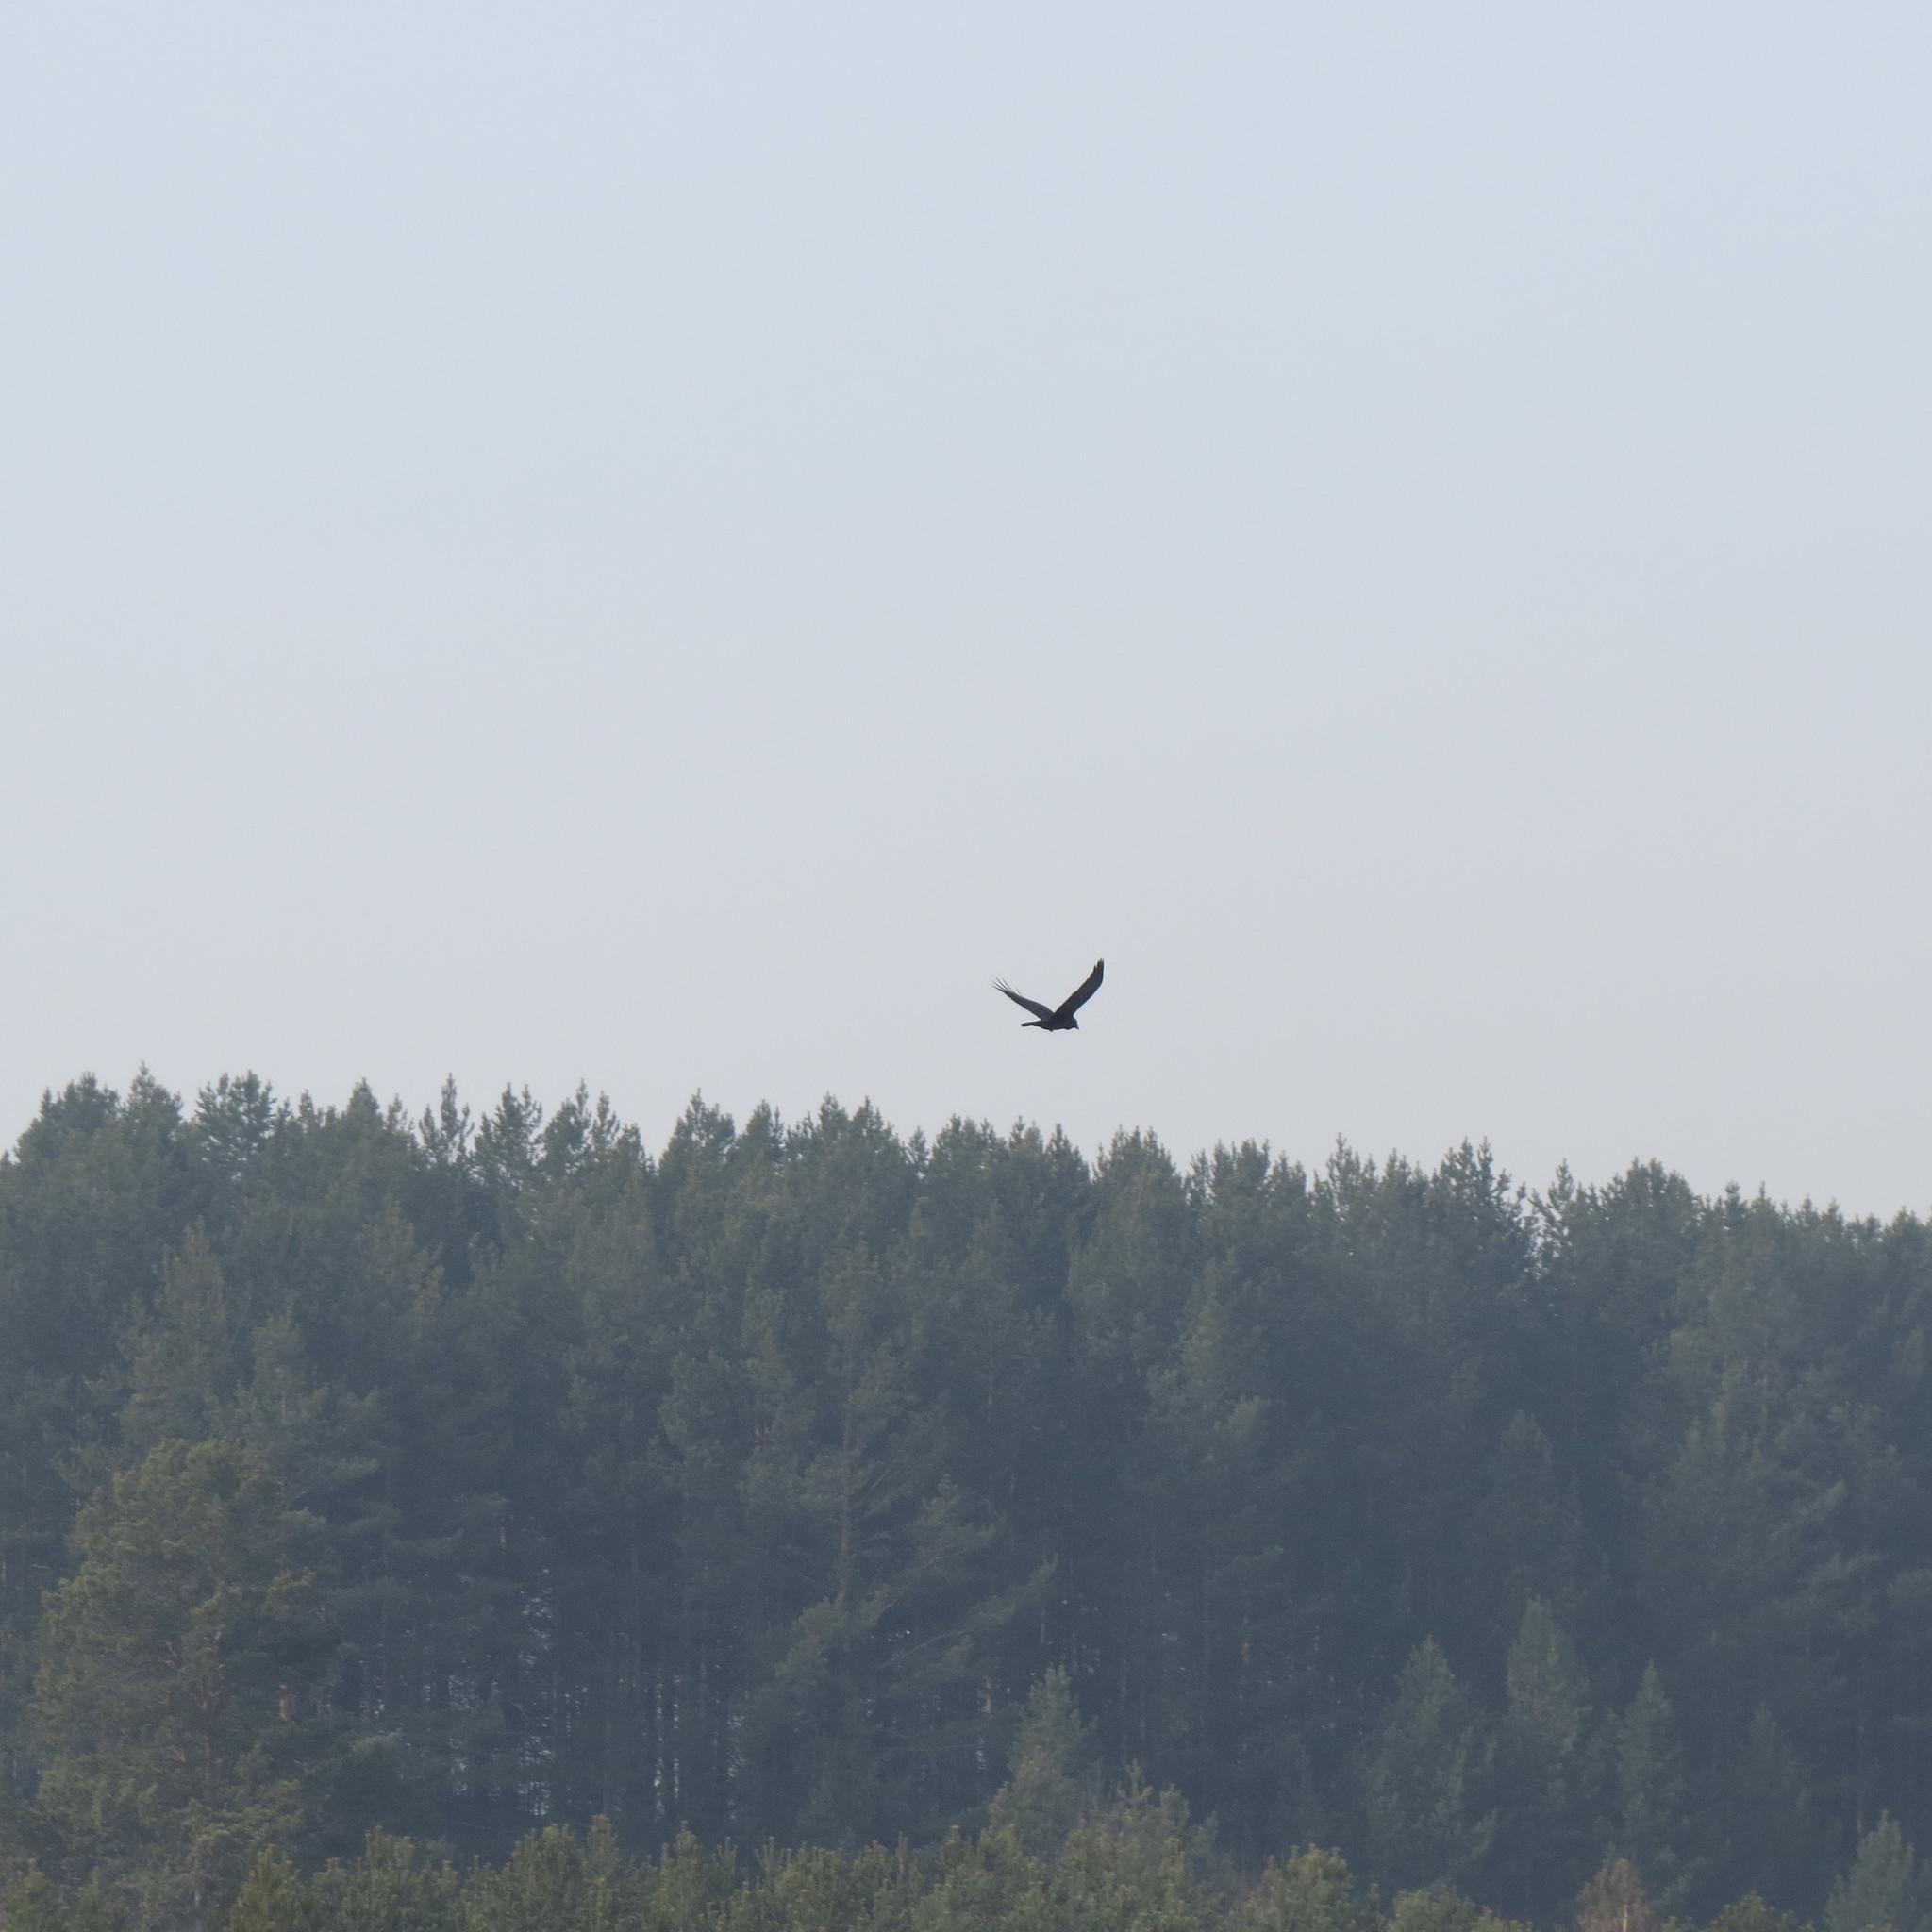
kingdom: Animalia
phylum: Chordata
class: Aves
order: Passeriformes
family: Corvidae
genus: Corvus
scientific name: Corvus corax
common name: Common raven
